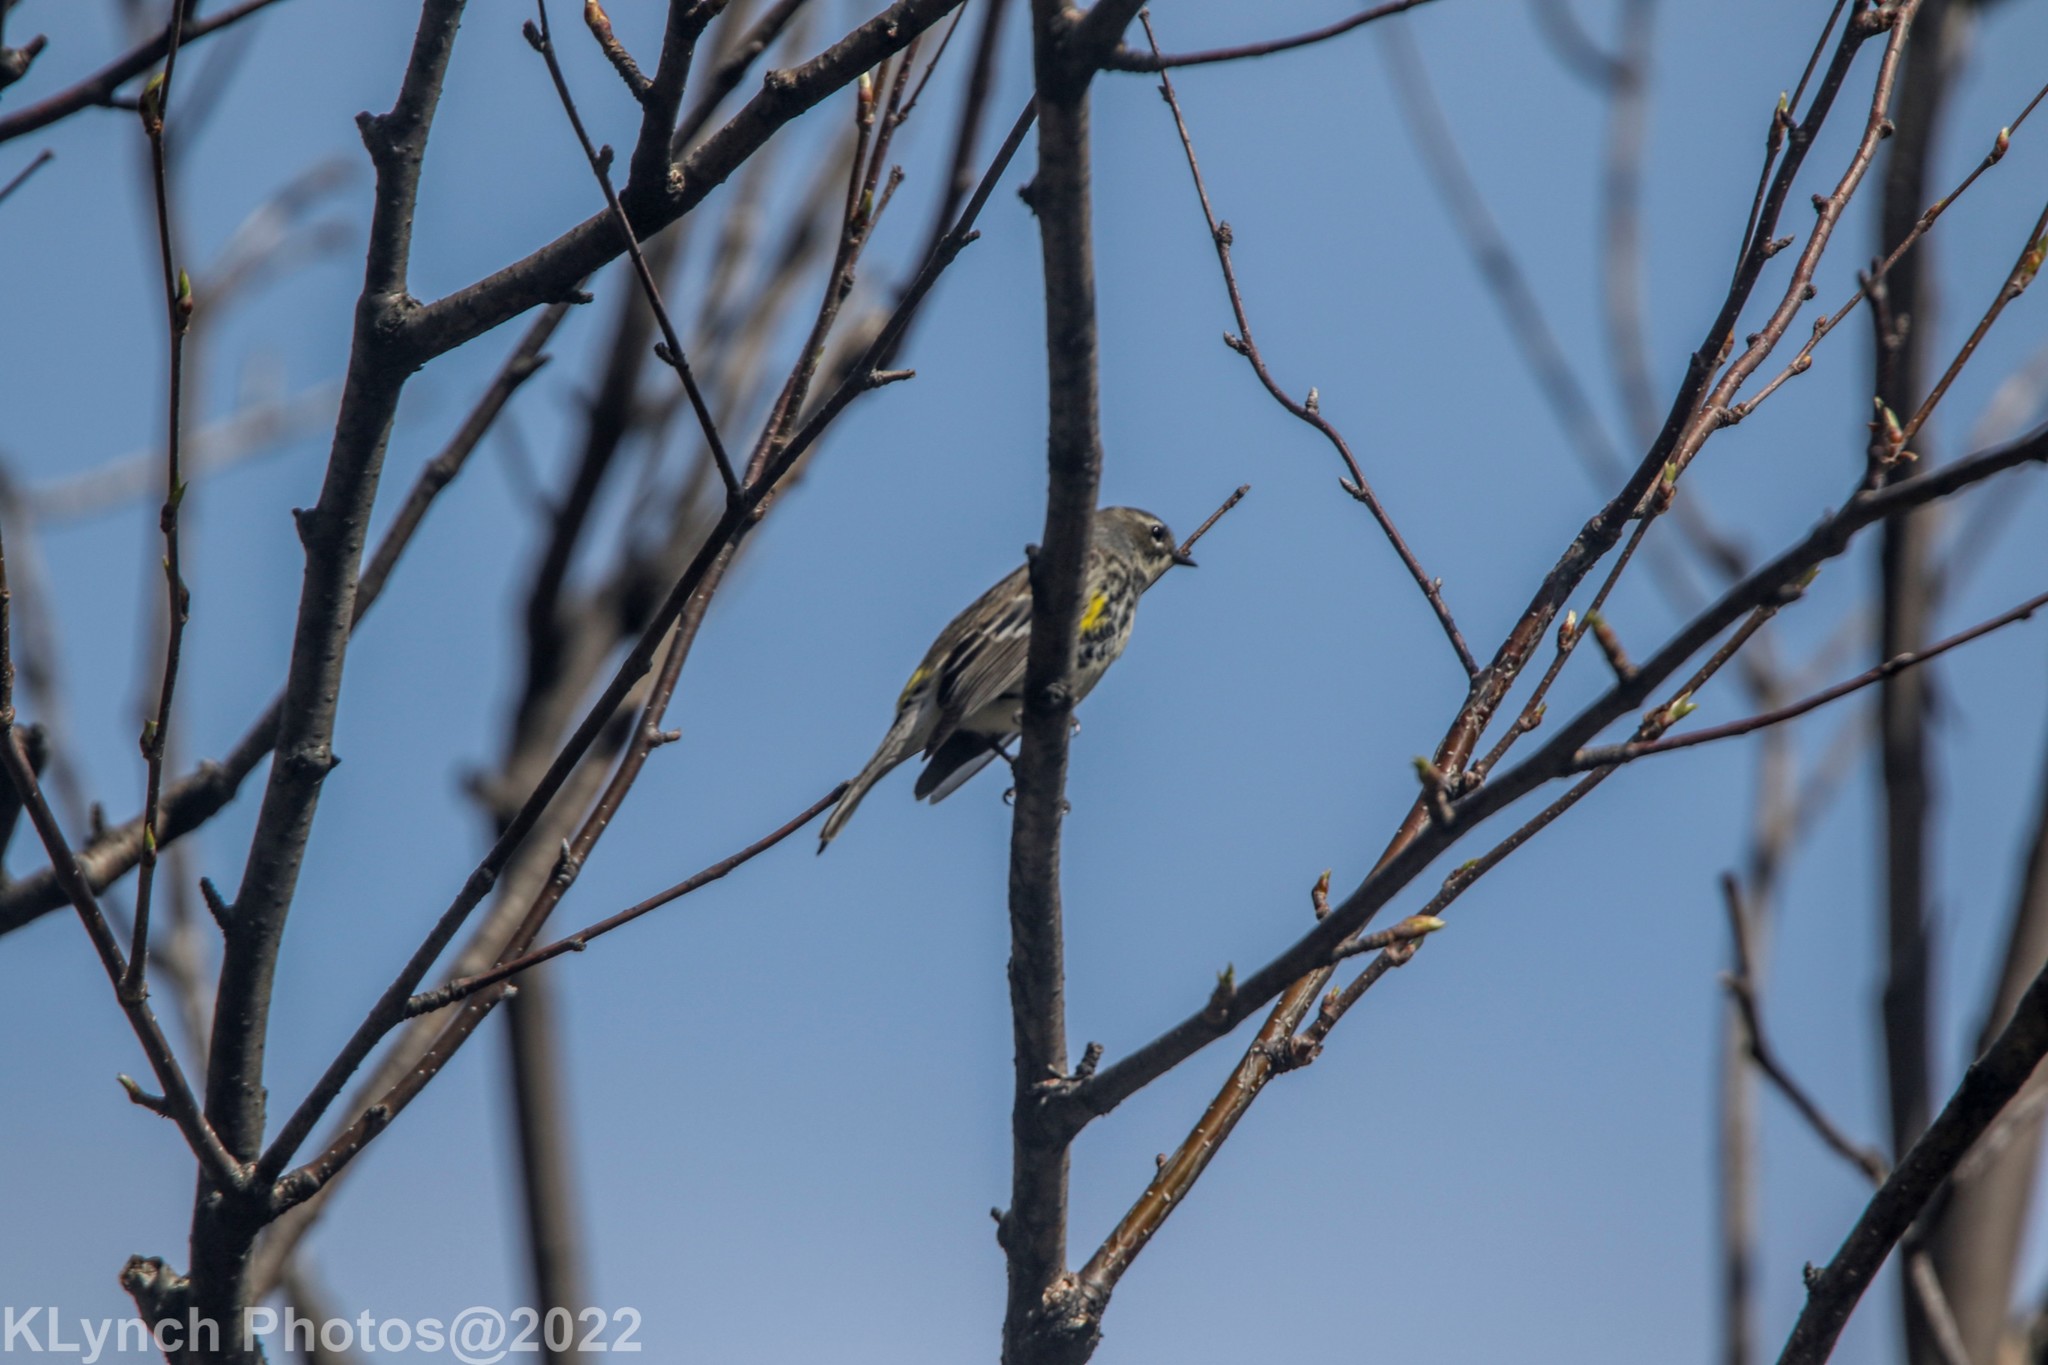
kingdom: Animalia
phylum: Chordata
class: Aves
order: Passeriformes
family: Parulidae
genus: Setophaga
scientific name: Setophaga coronata
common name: Myrtle warbler
